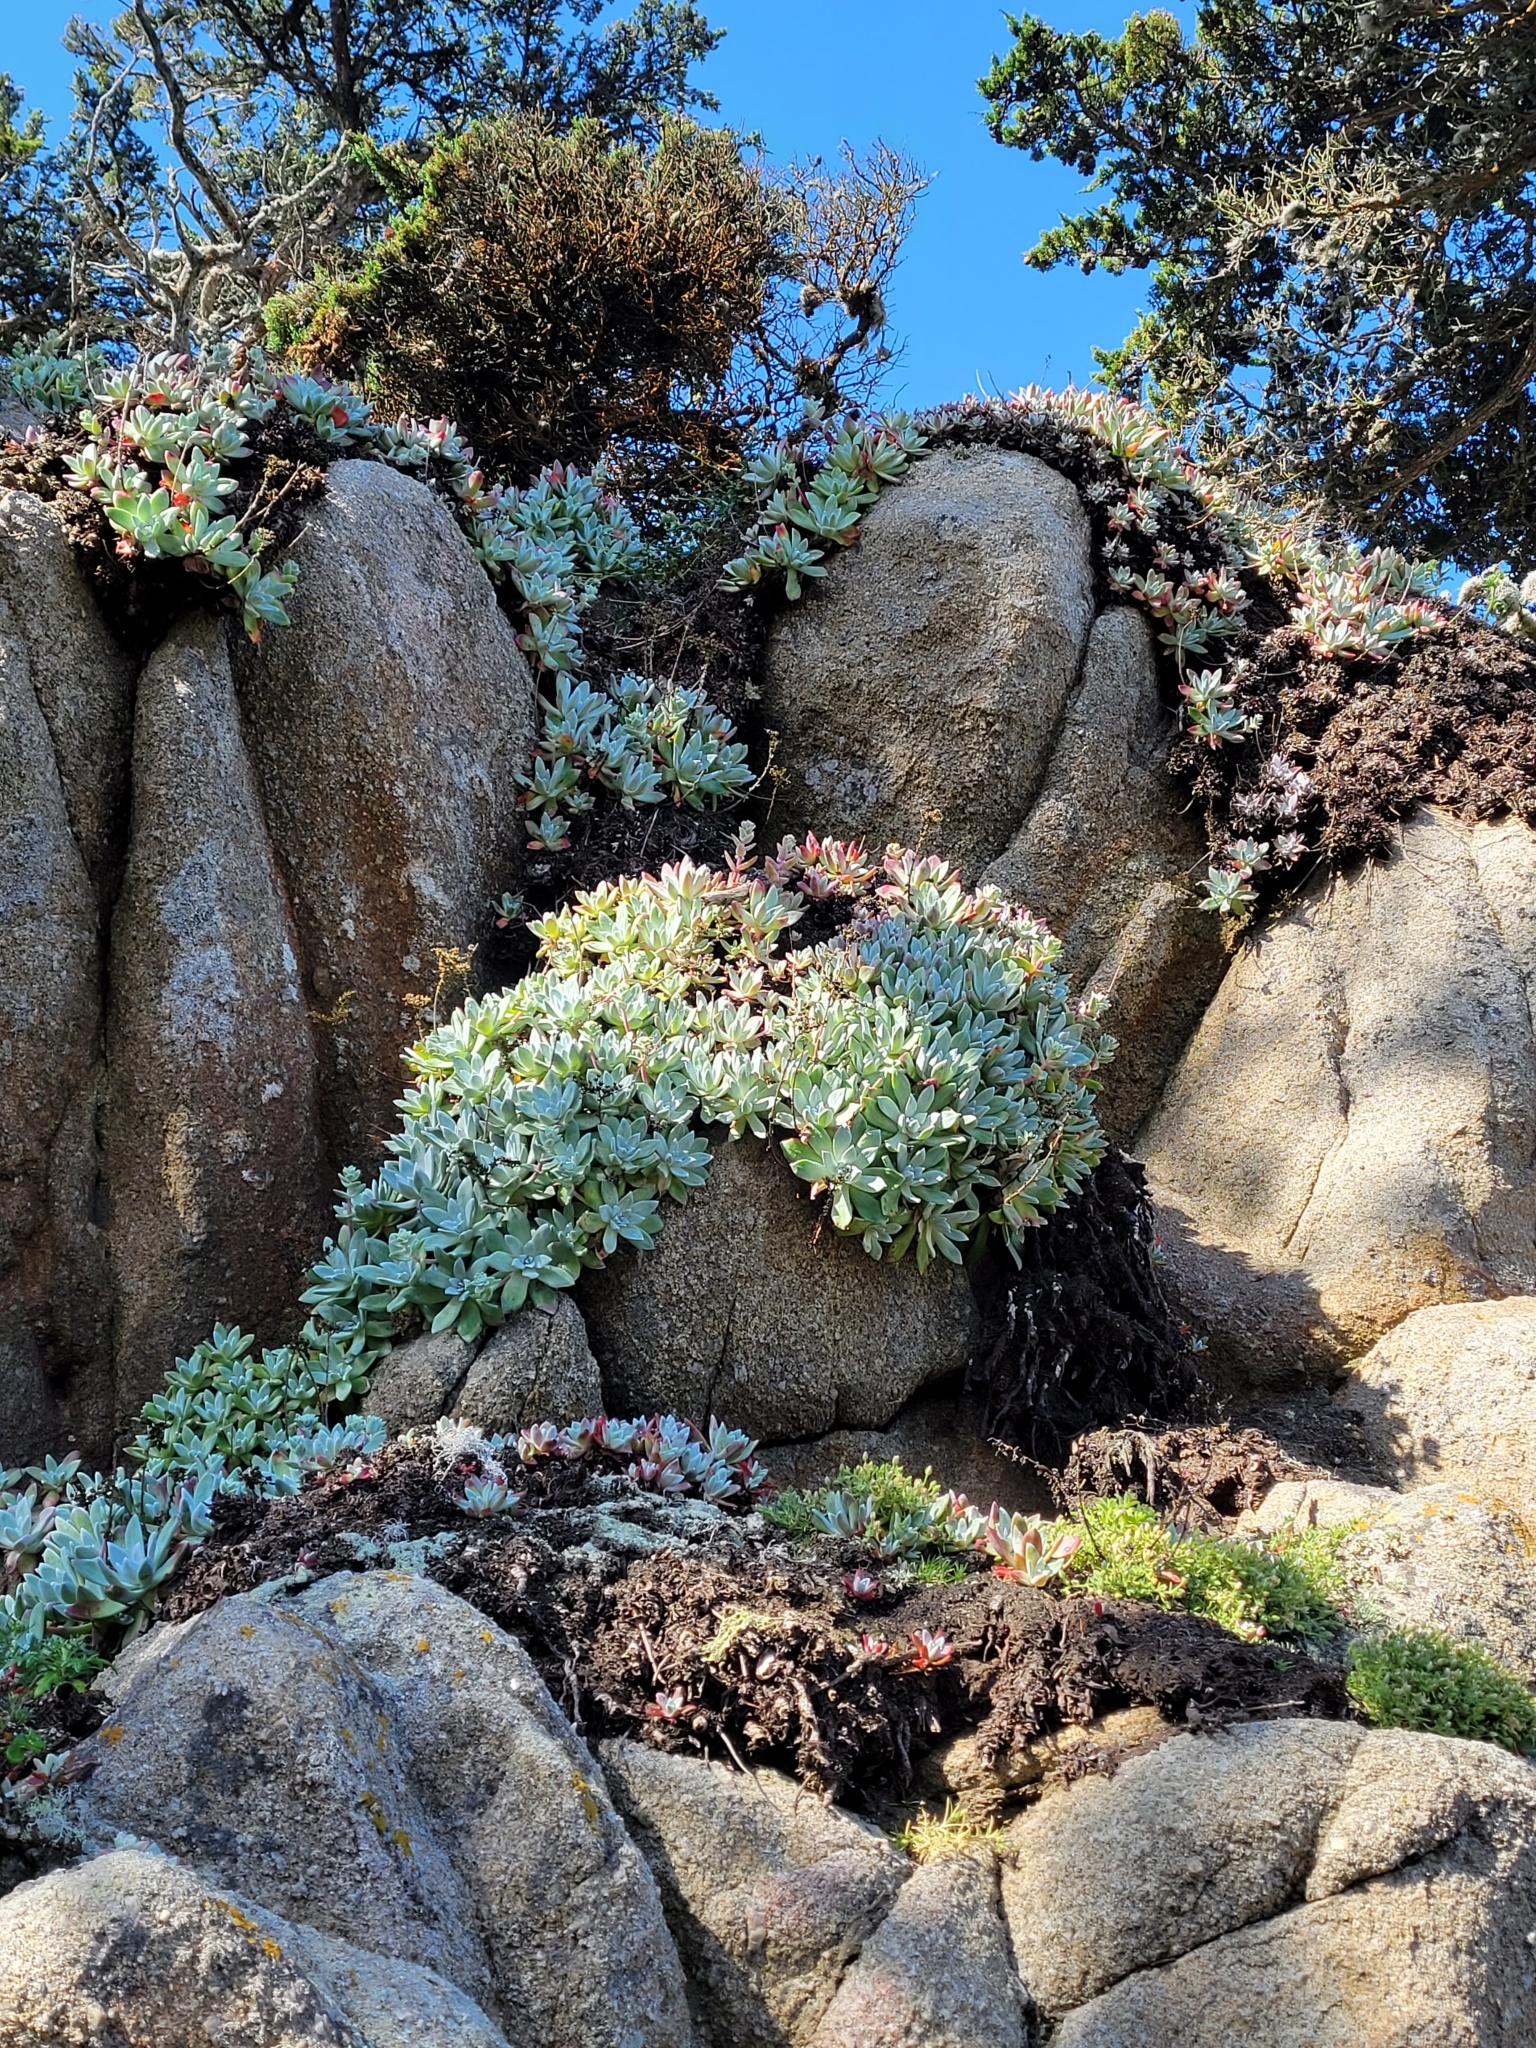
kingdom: Plantae
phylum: Tracheophyta
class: Magnoliopsida
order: Saxifragales
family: Crassulaceae
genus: Dudleya
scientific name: Dudleya farinosa
